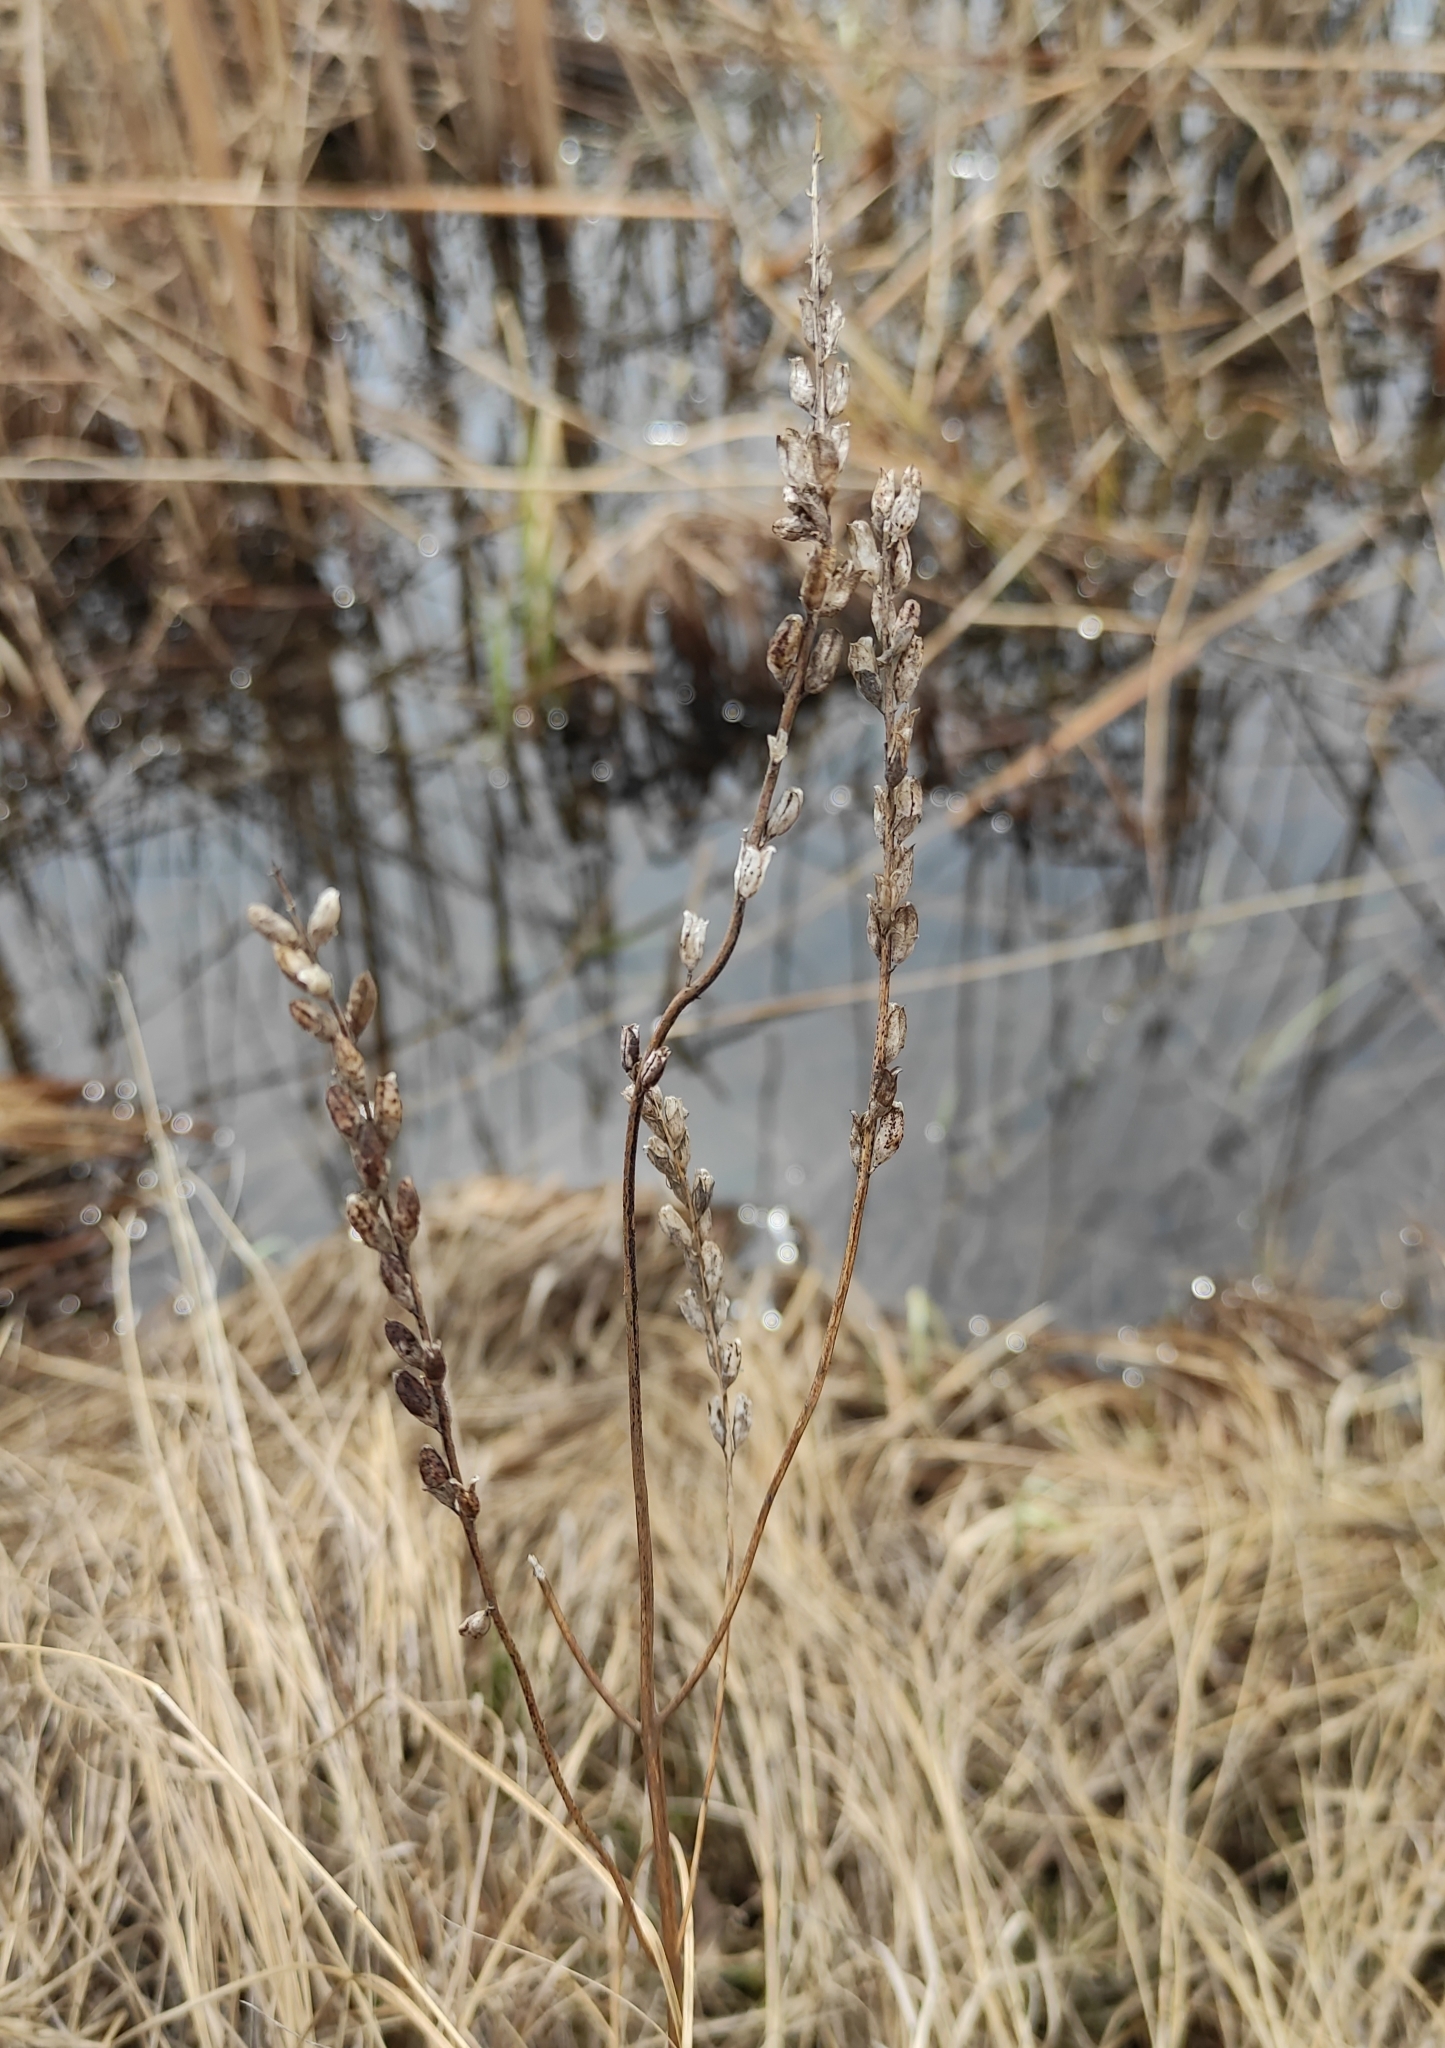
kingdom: Plantae
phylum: Tracheophyta
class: Magnoliopsida
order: Lamiales
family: Orobanchaceae
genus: Odontites
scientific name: Odontites vulgaris
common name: Broomrape
